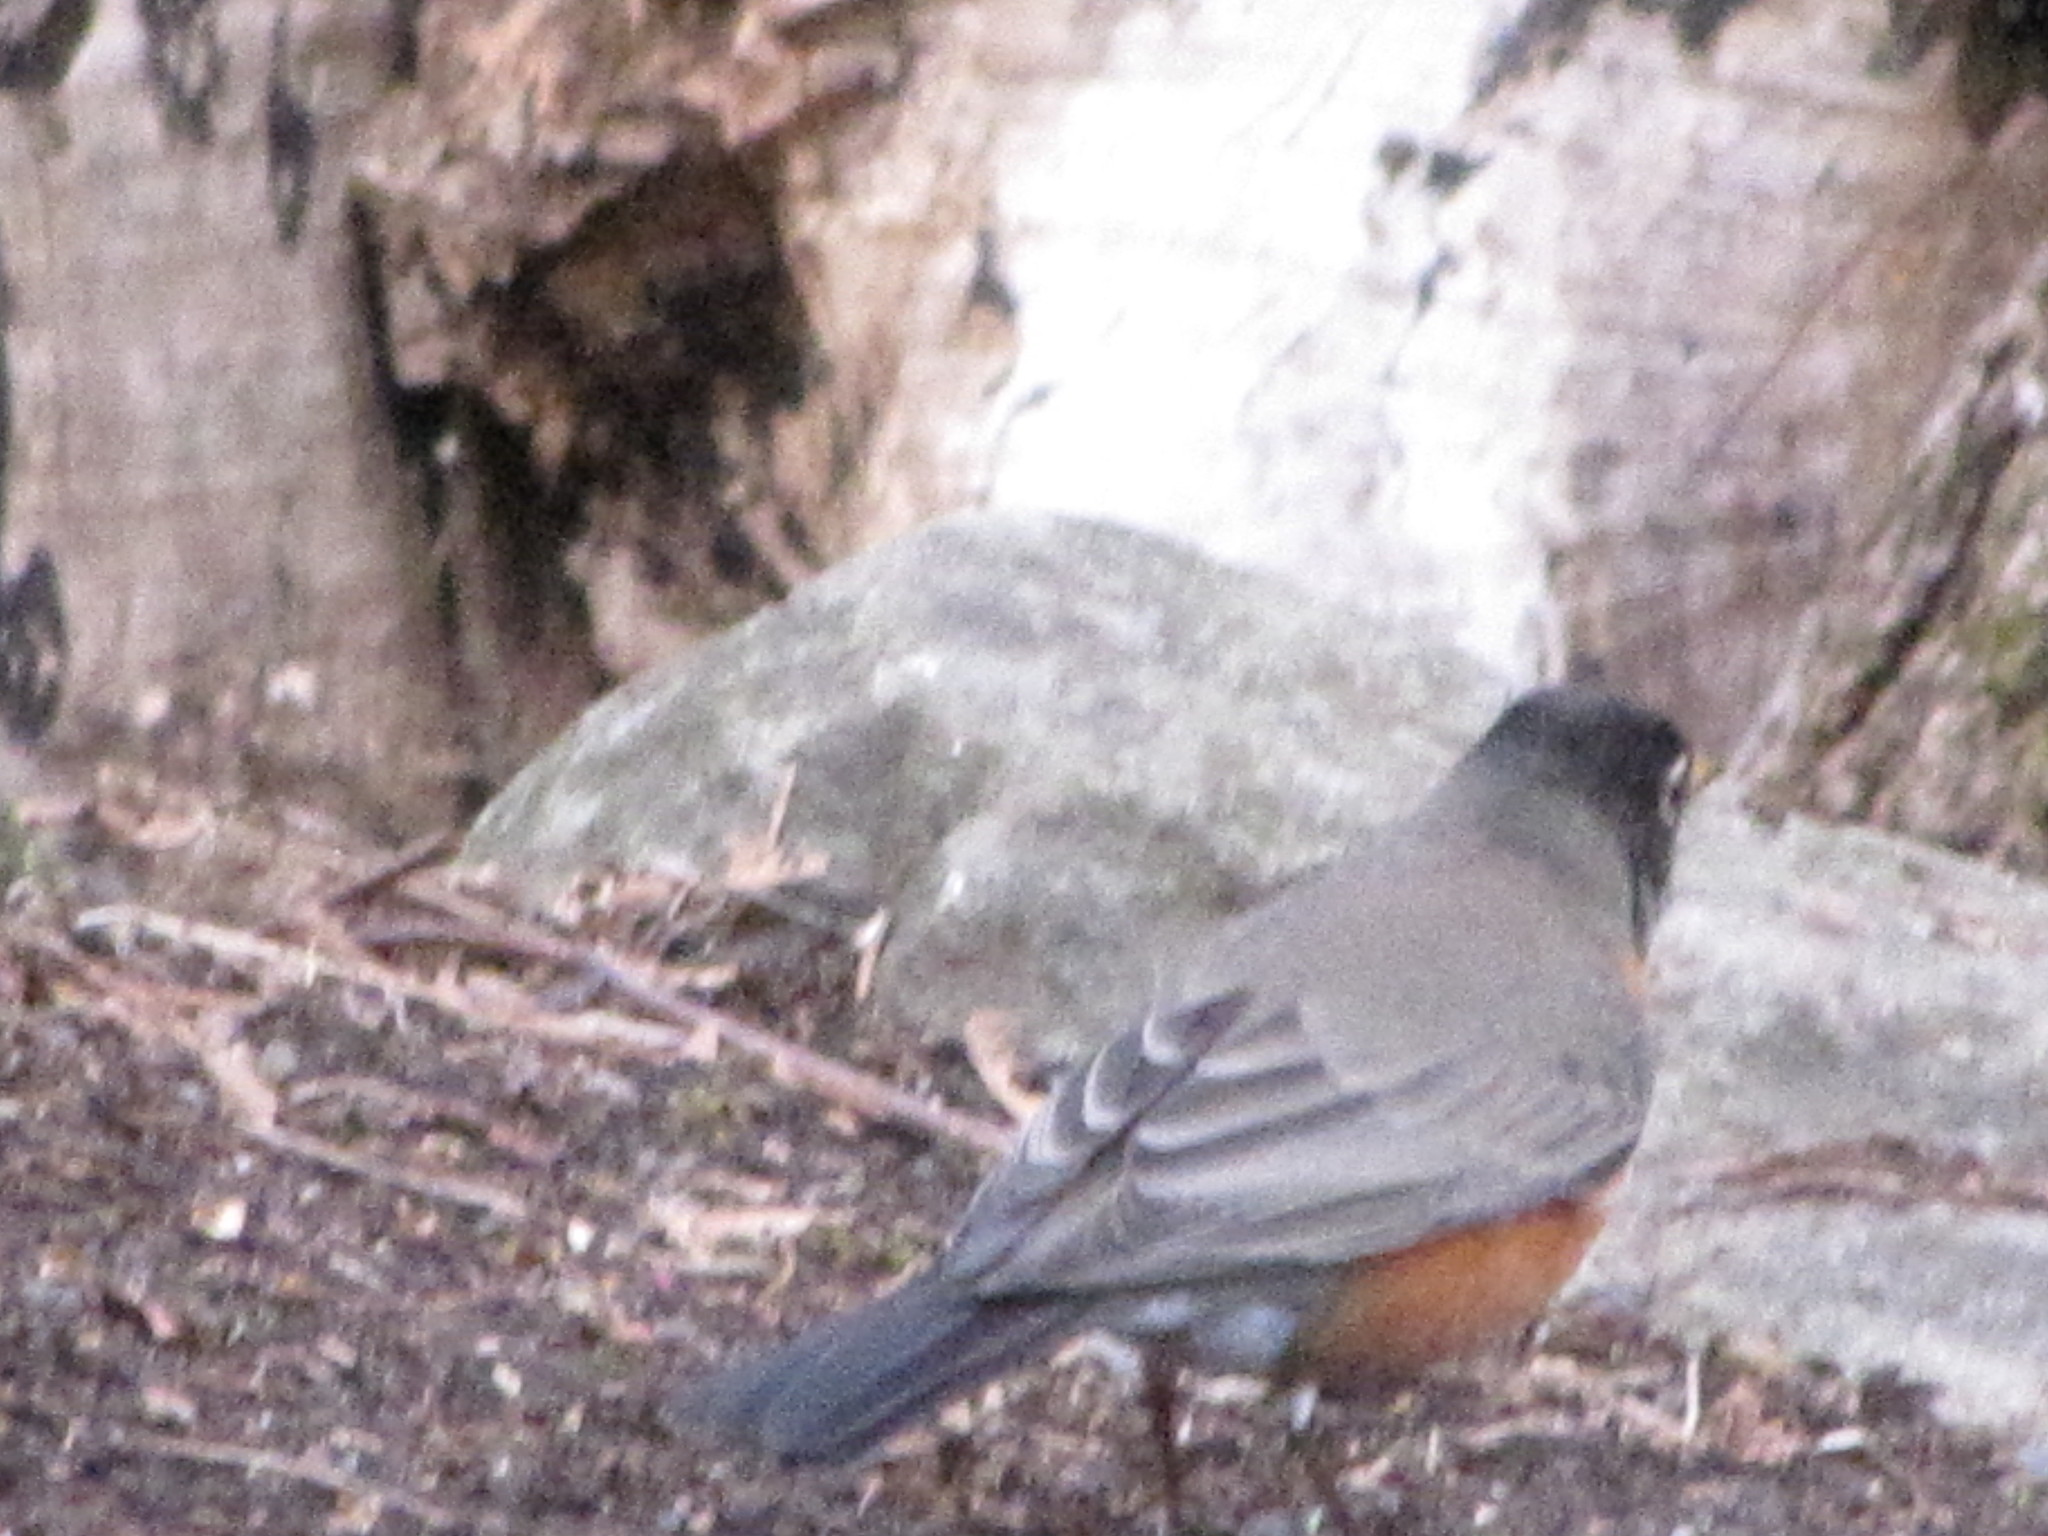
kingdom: Animalia
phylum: Chordata
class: Aves
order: Passeriformes
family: Turdidae
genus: Turdus
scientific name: Turdus migratorius
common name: American robin
